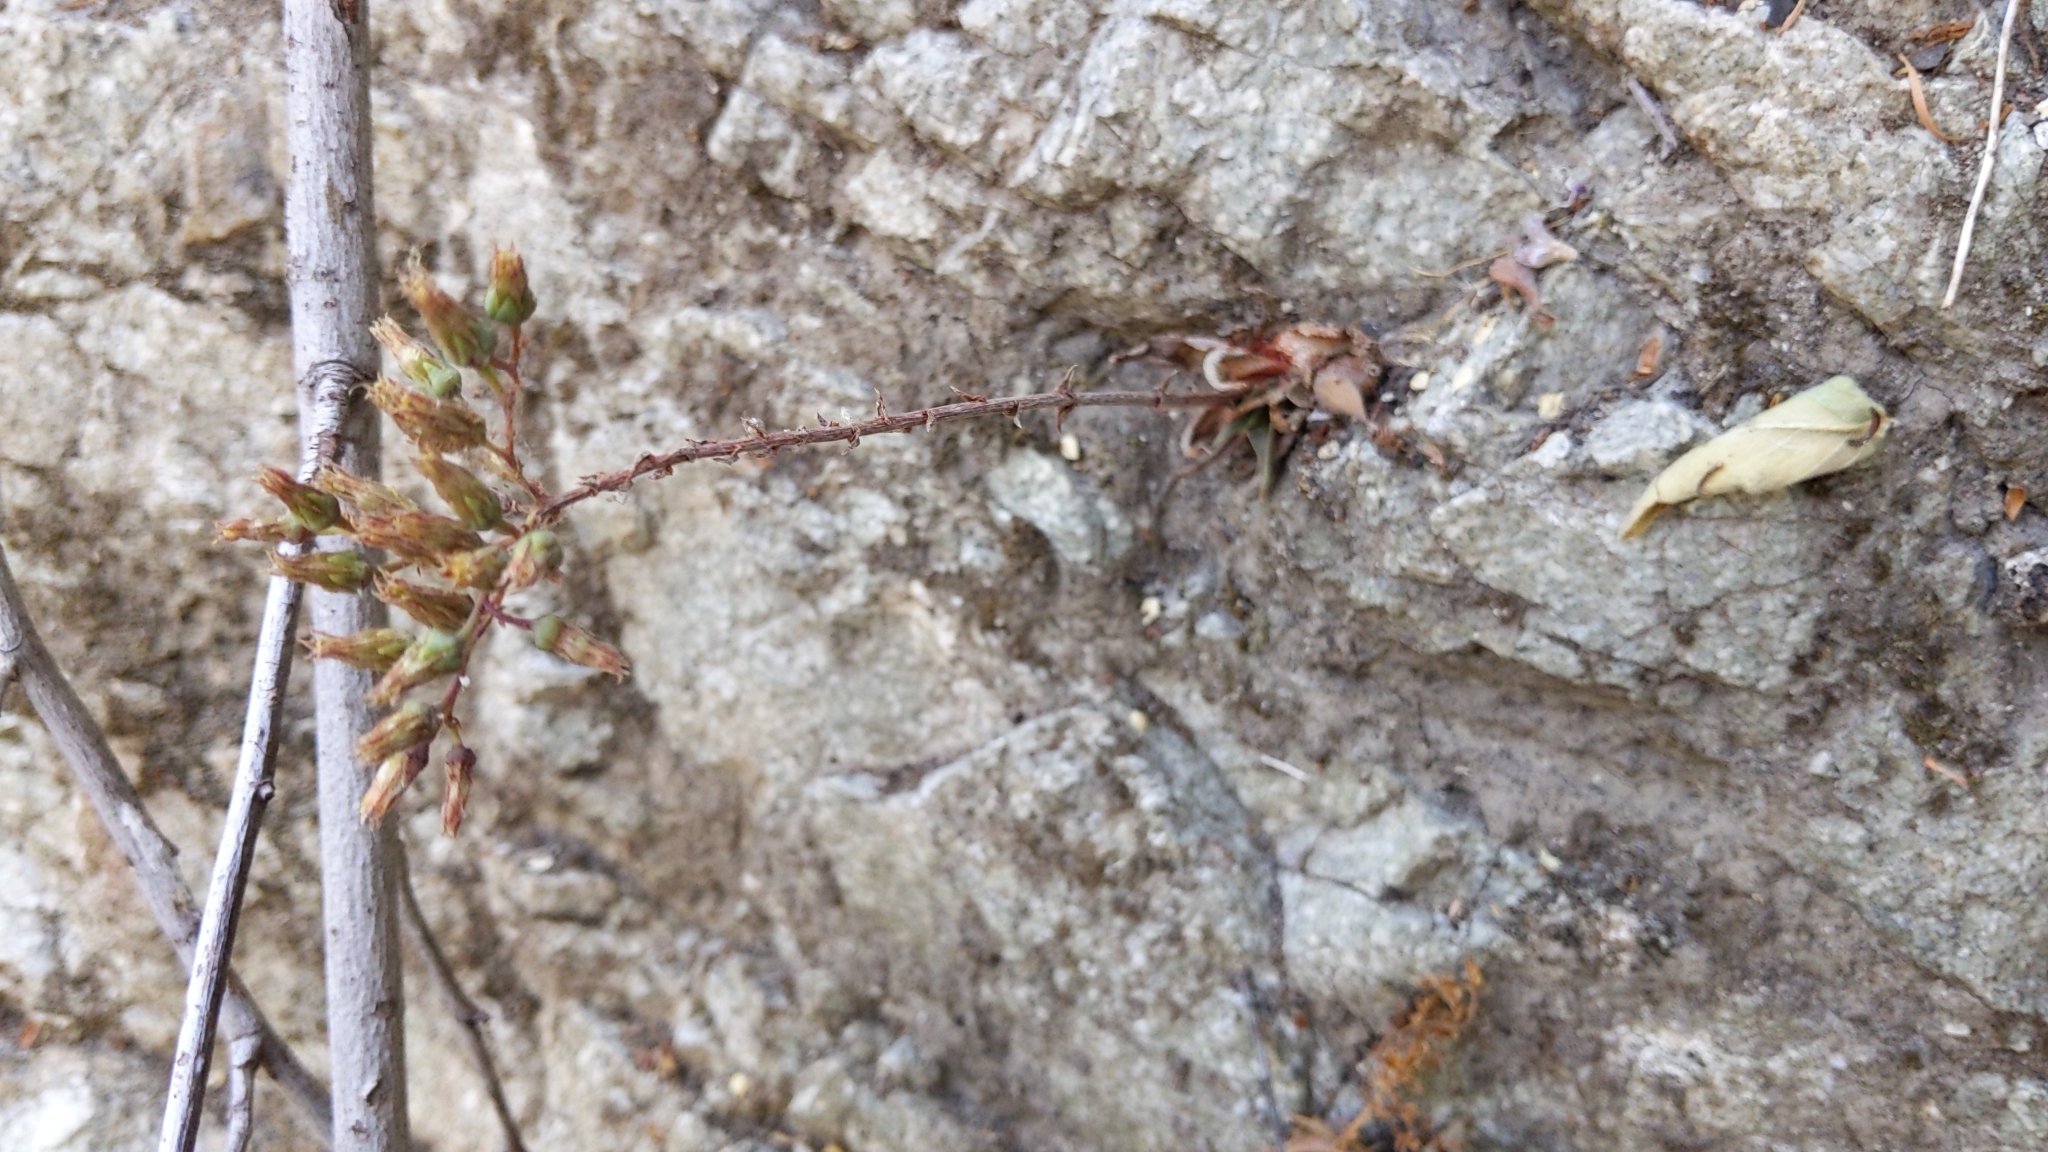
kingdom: Plantae
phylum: Tracheophyta
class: Magnoliopsida
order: Saxifragales
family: Crassulaceae
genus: Dudleya
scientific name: Dudleya lanceolata
